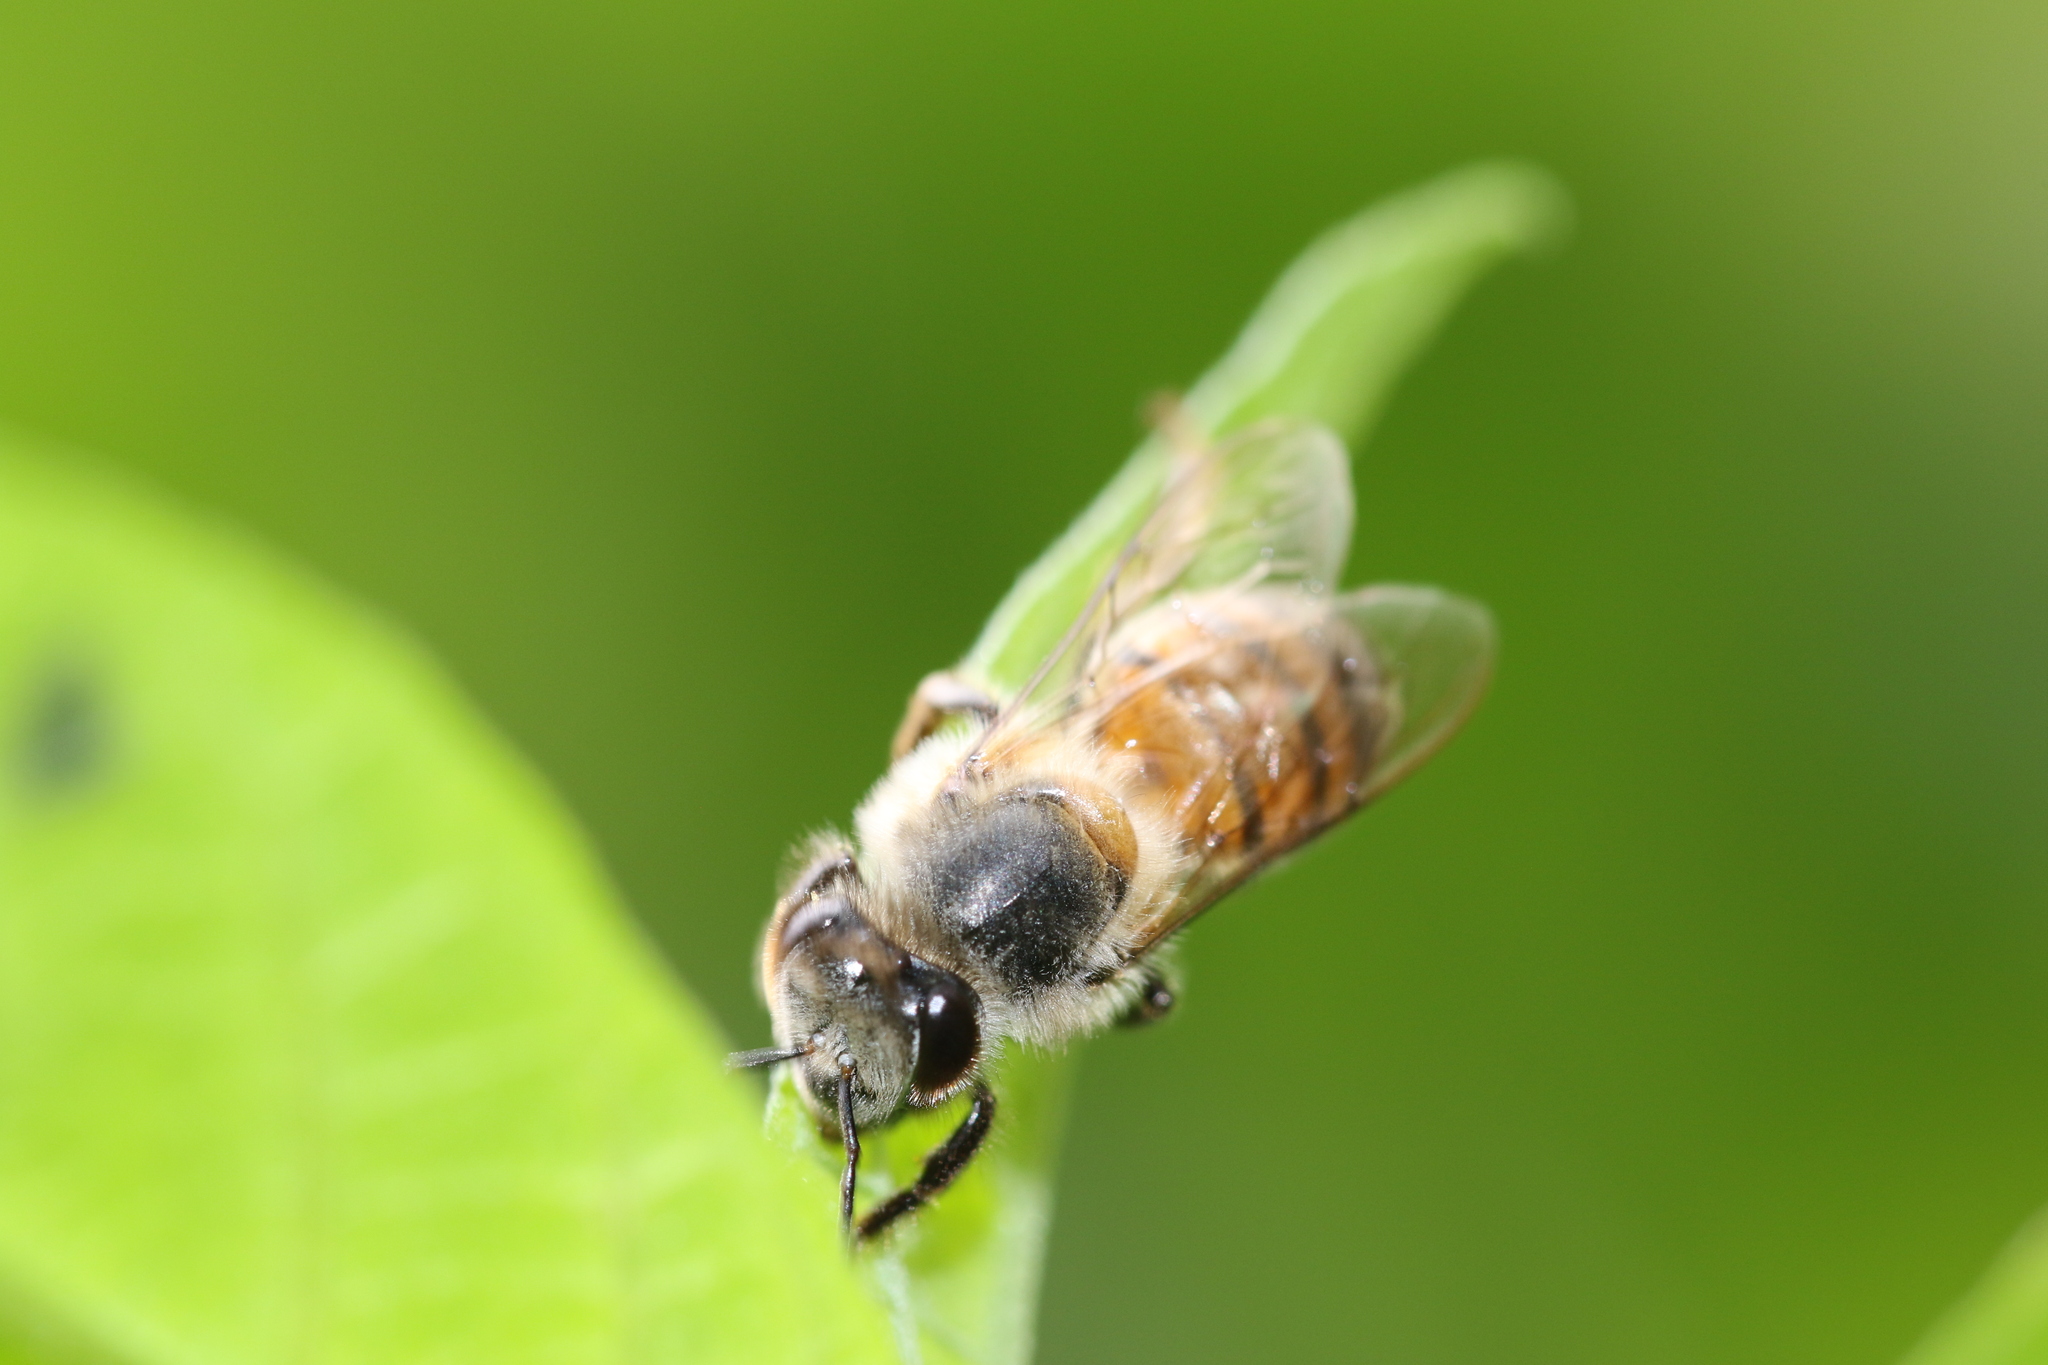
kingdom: Animalia
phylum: Arthropoda
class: Insecta
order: Hymenoptera
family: Apidae
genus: Apis
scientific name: Apis mellifera
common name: Honey bee
